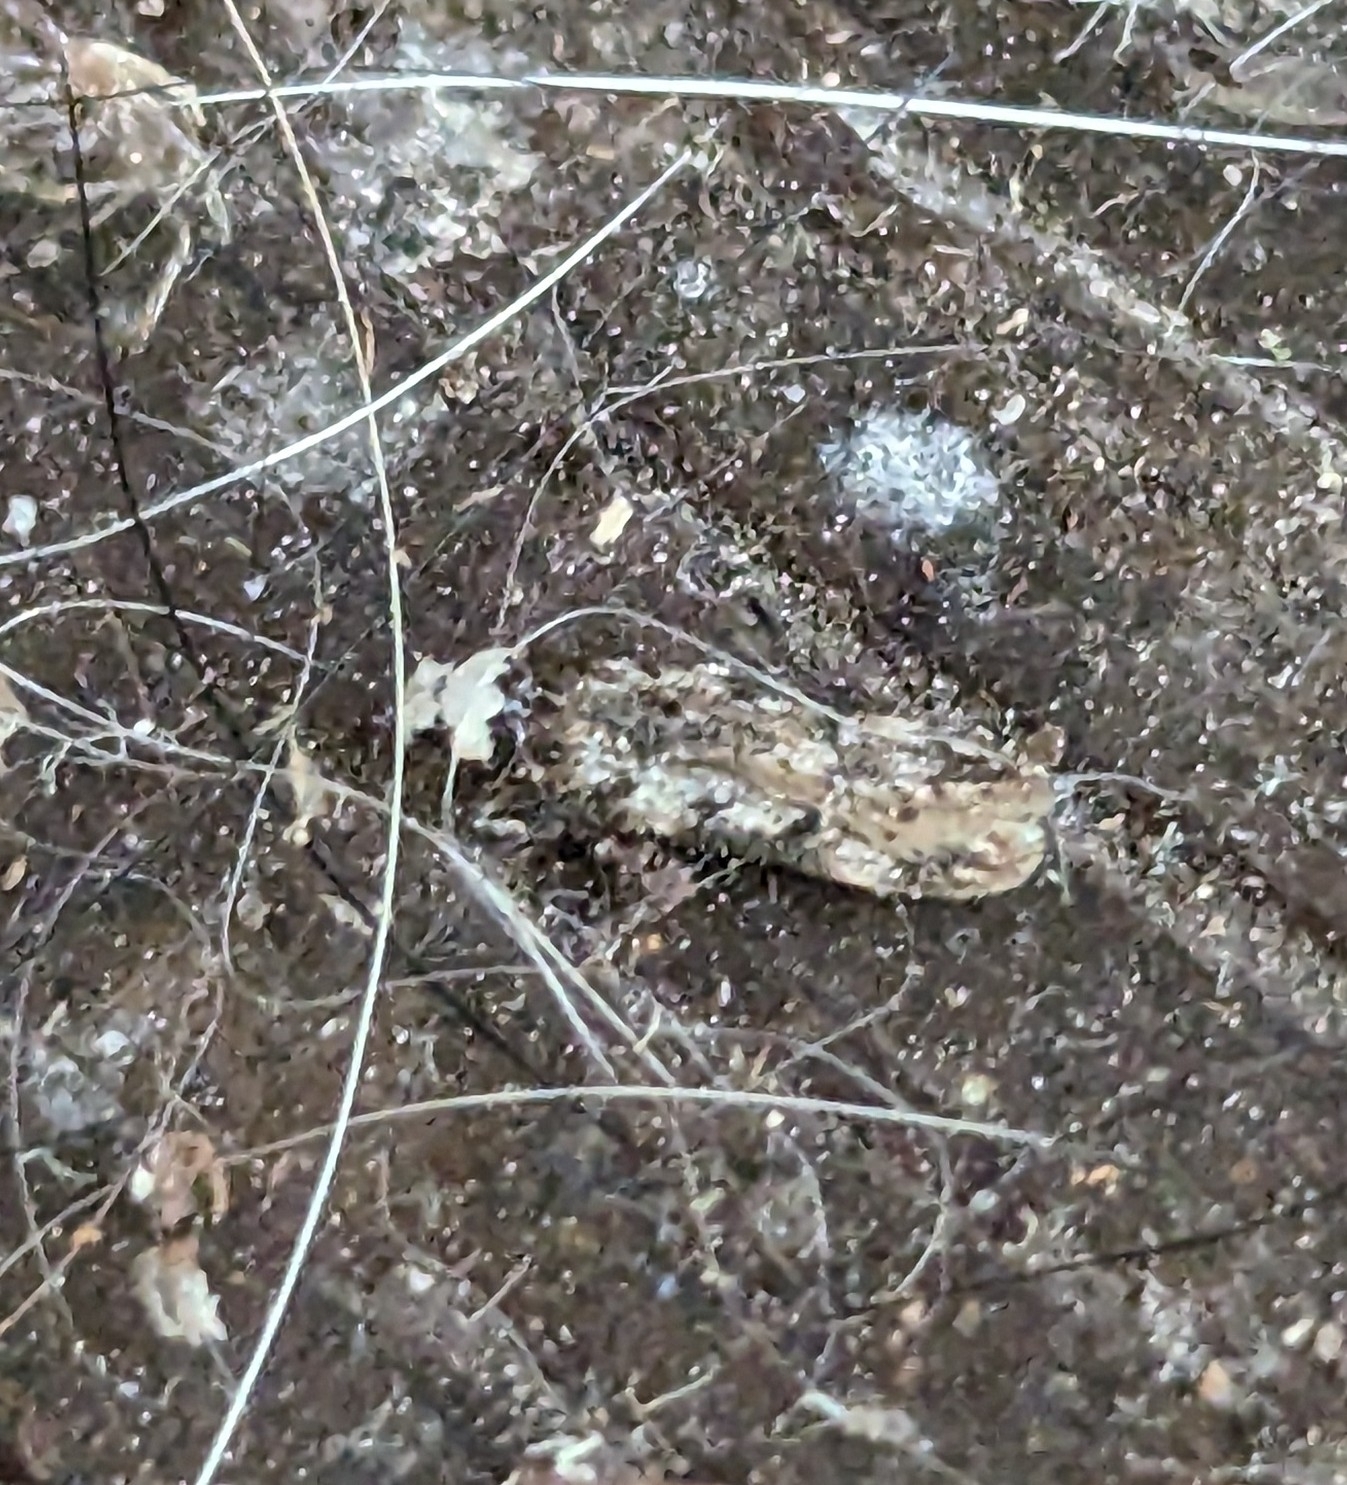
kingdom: Animalia
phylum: Arthropoda
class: Insecta
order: Lepidoptera
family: Oecophoridae
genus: Endrosis
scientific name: Endrosis sarcitrella
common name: White-shouldered house moth
